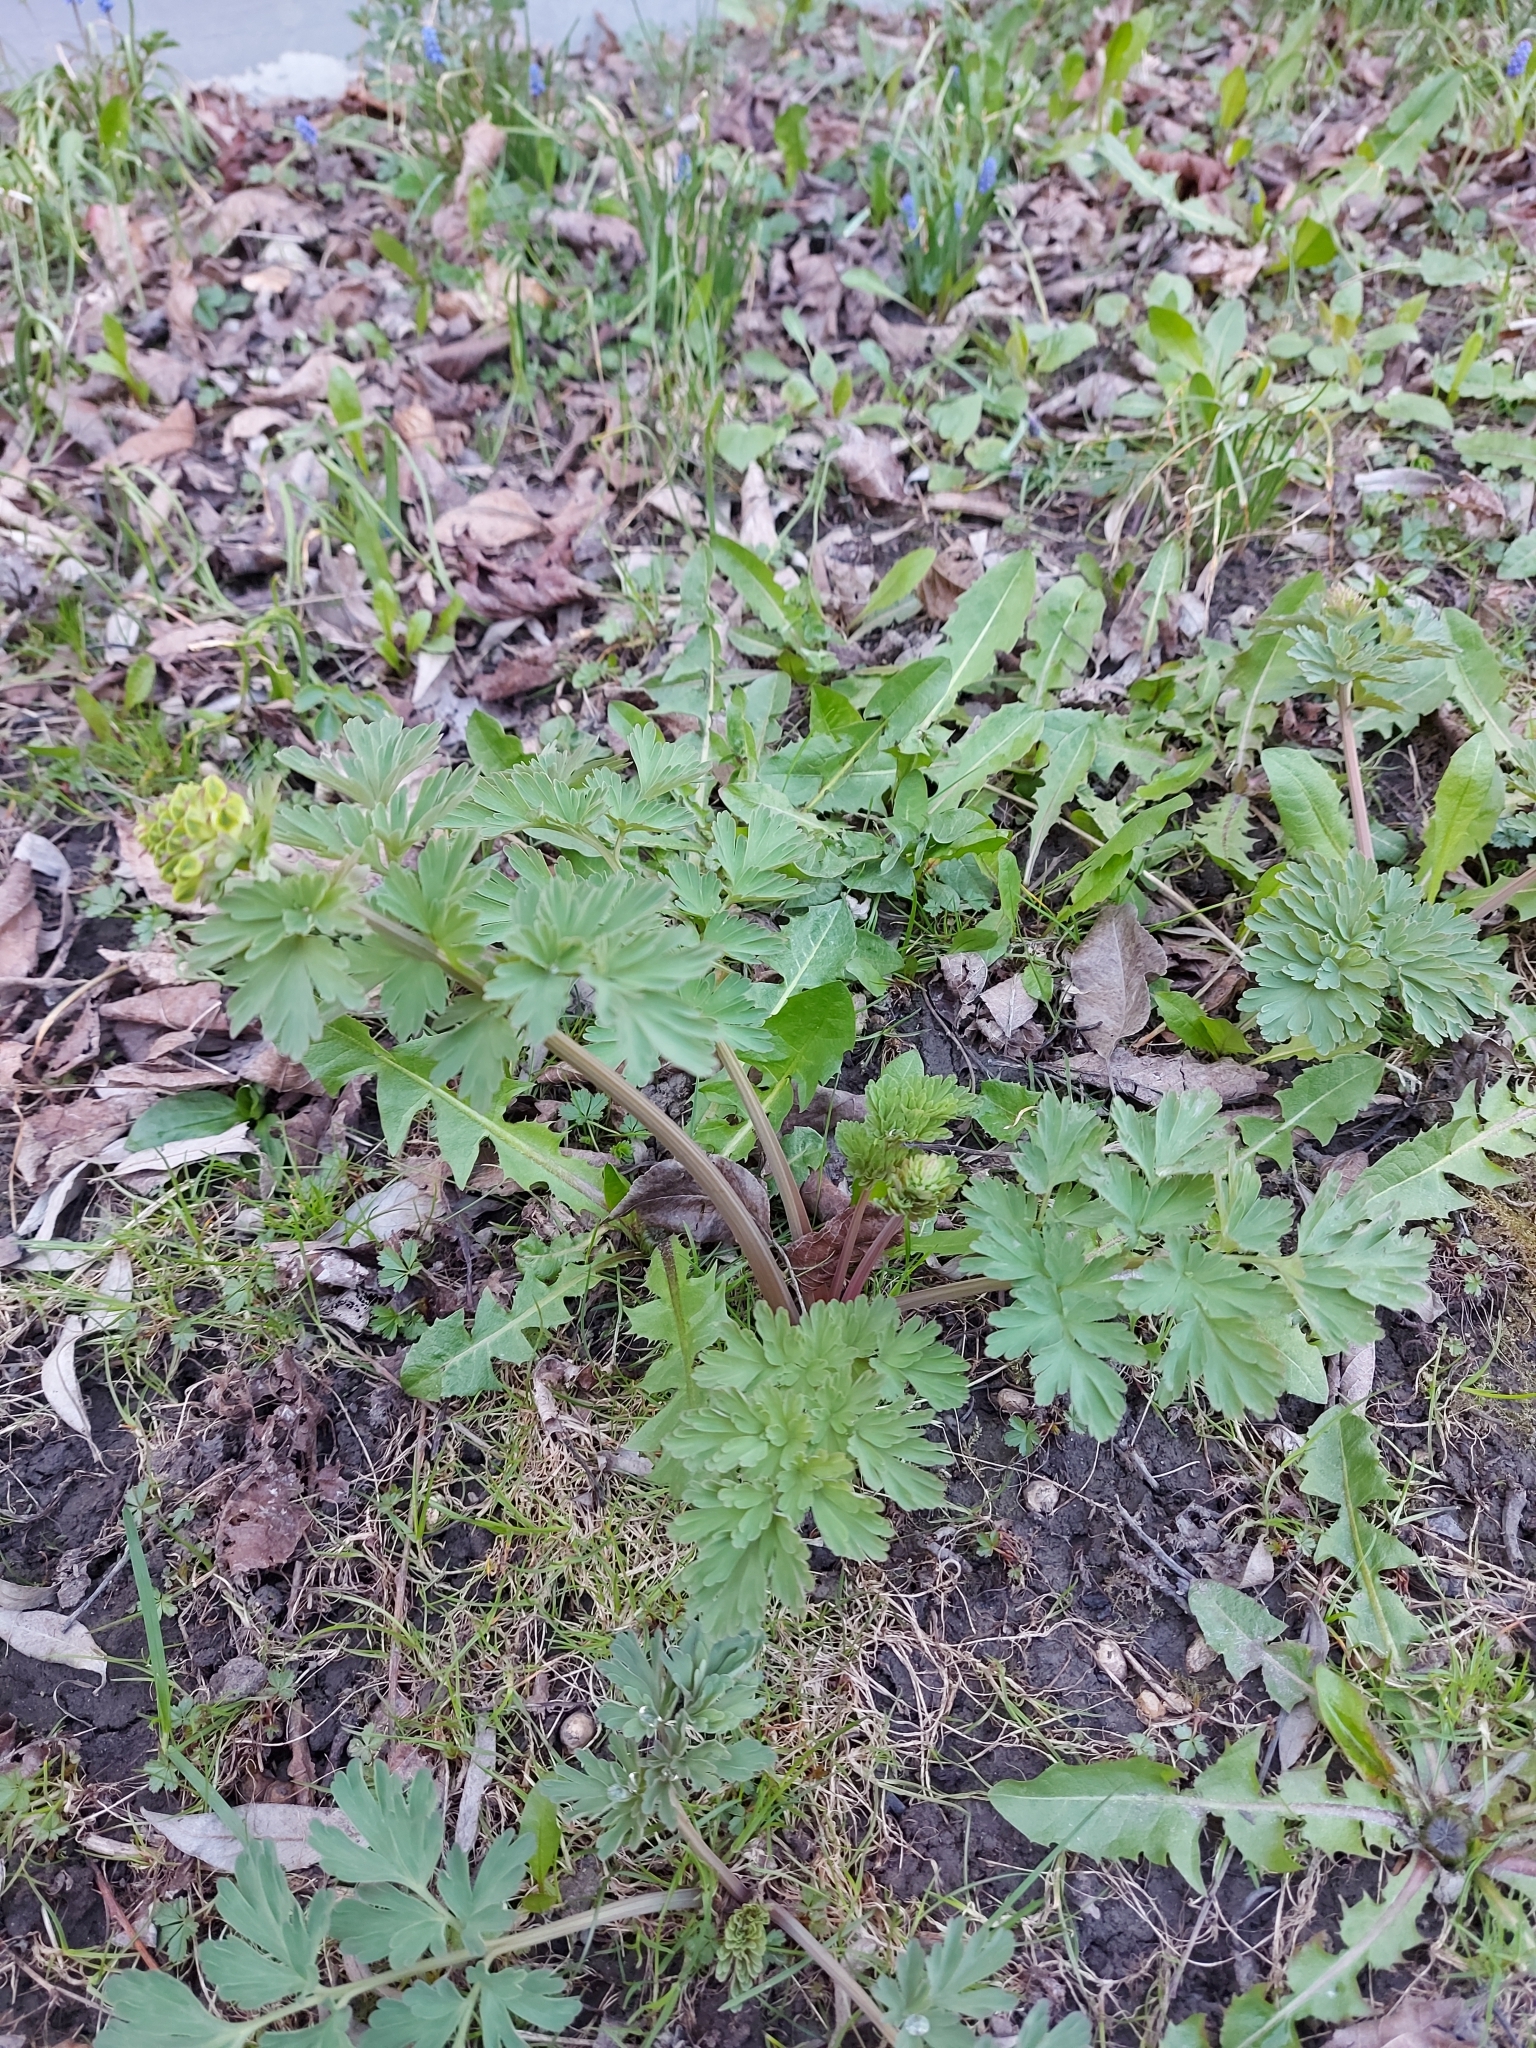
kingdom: Plantae
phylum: Tracheophyta
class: Magnoliopsida
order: Ranunculales
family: Papaveraceae
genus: Corydalis
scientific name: Corydalis nobilis
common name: Siberian corydalis
